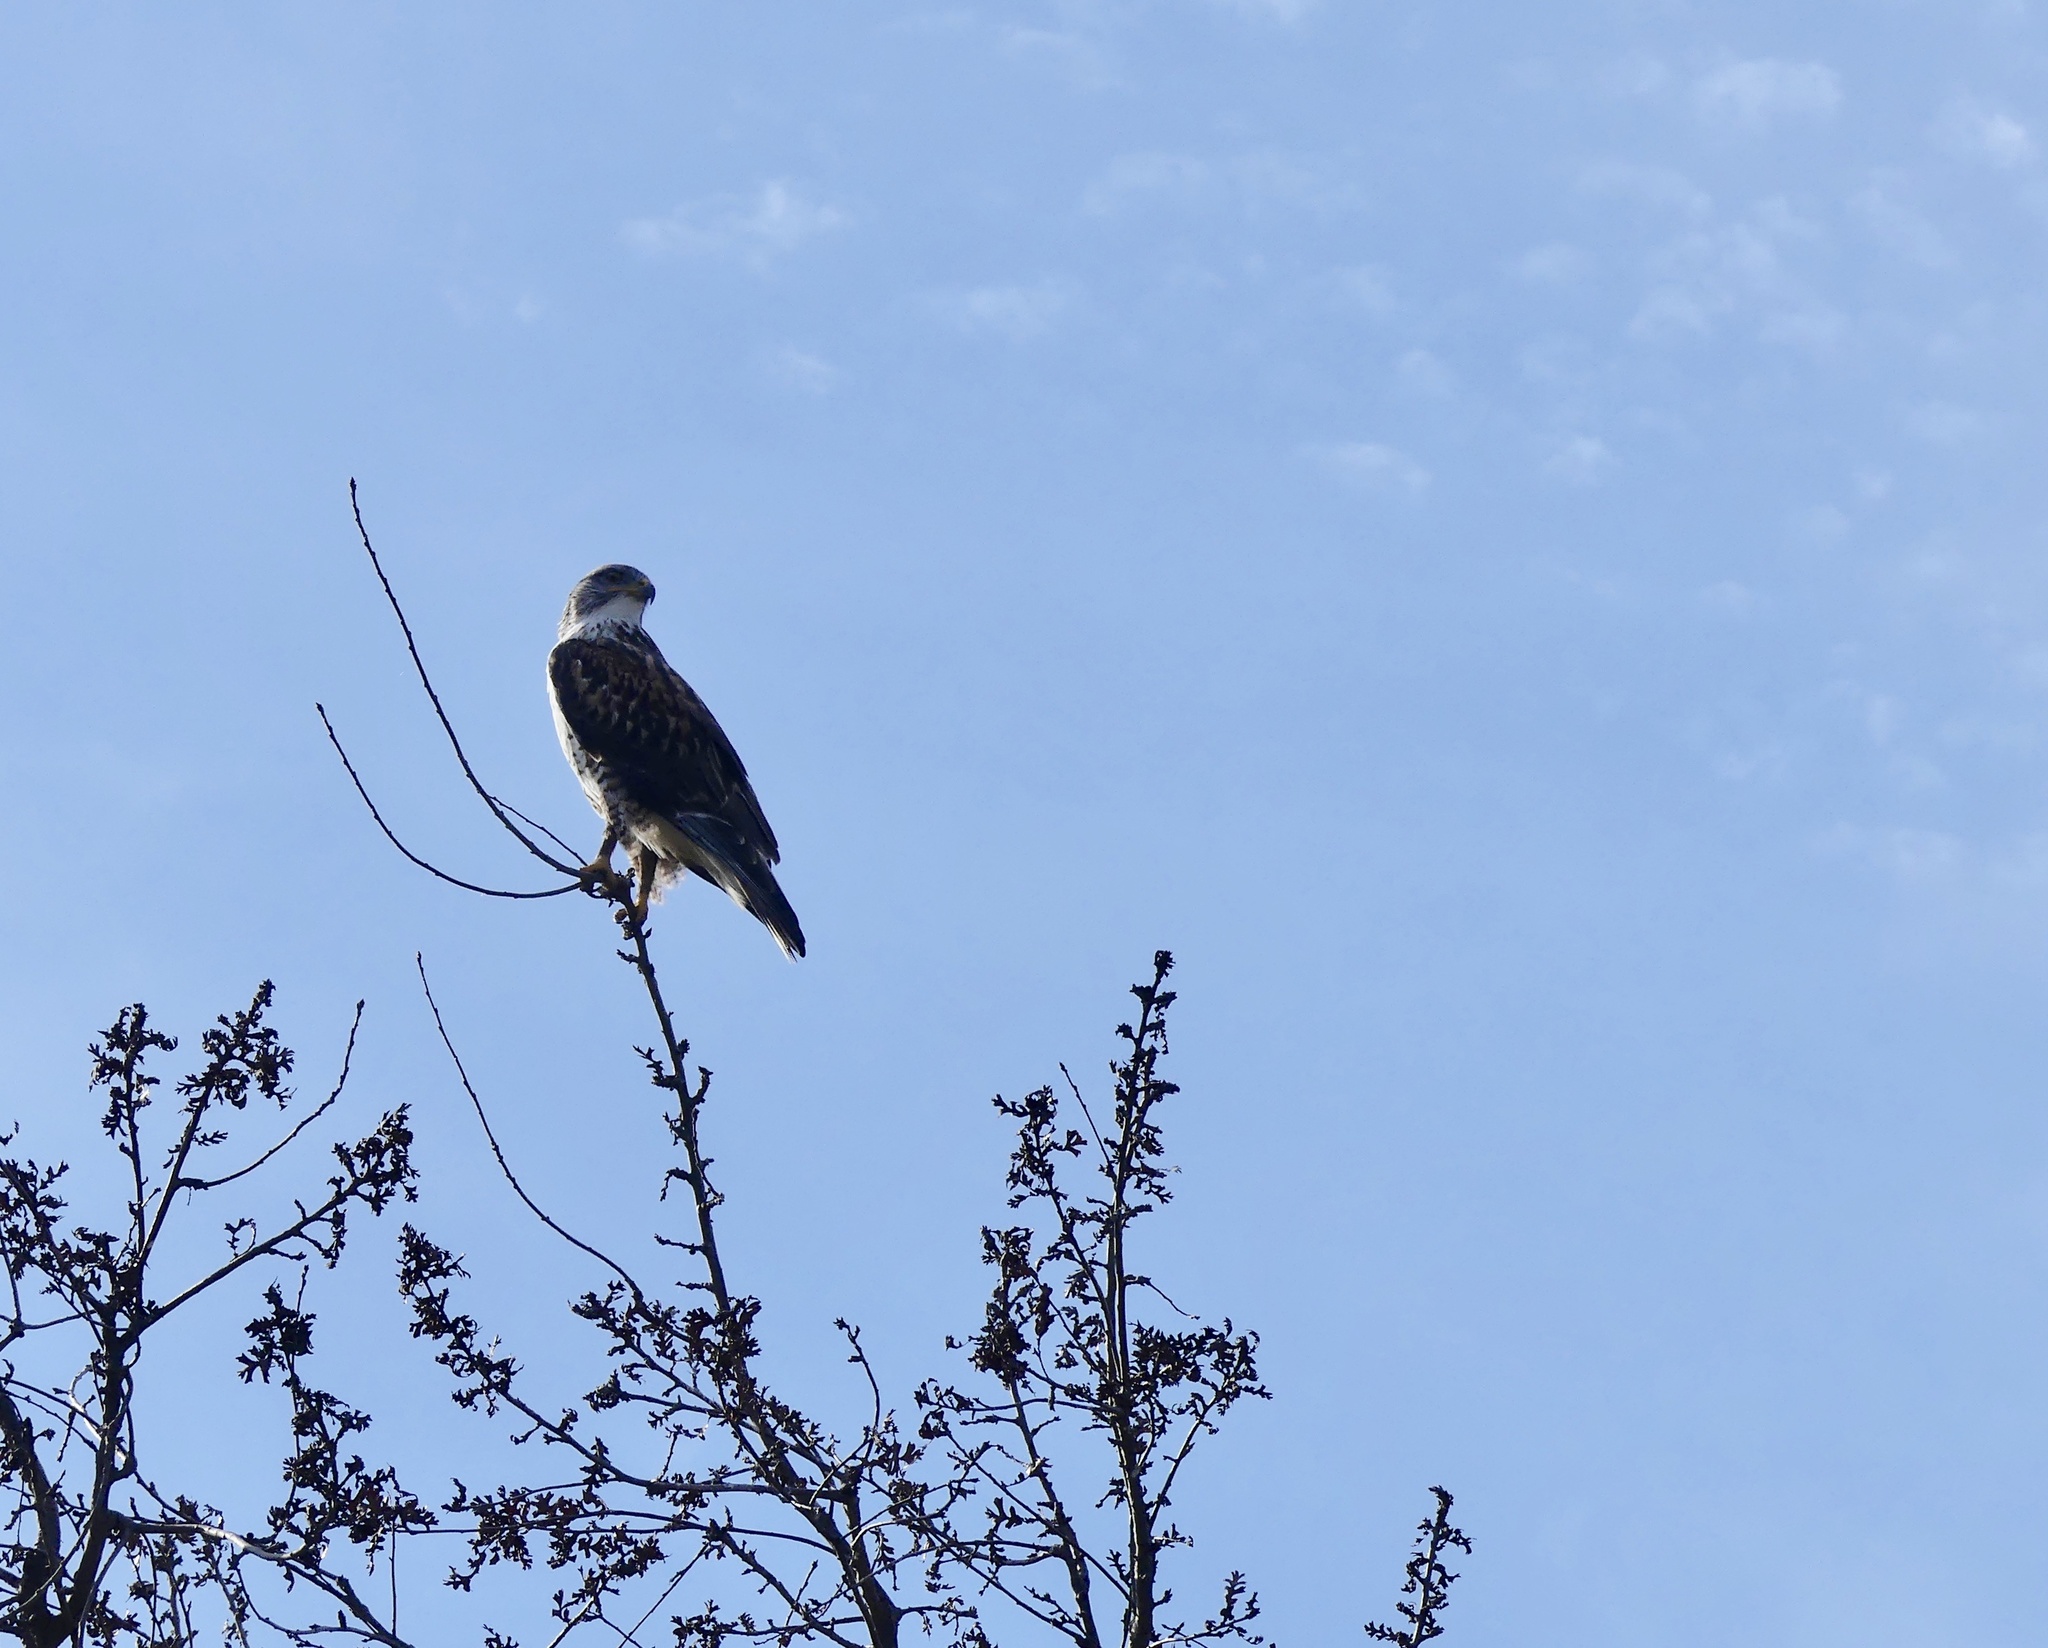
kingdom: Animalia
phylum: Chordata
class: Aves
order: Accipitriformes
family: Accipitridae
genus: Buteo
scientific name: Buteo regalis
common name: Ferruginous hawk
